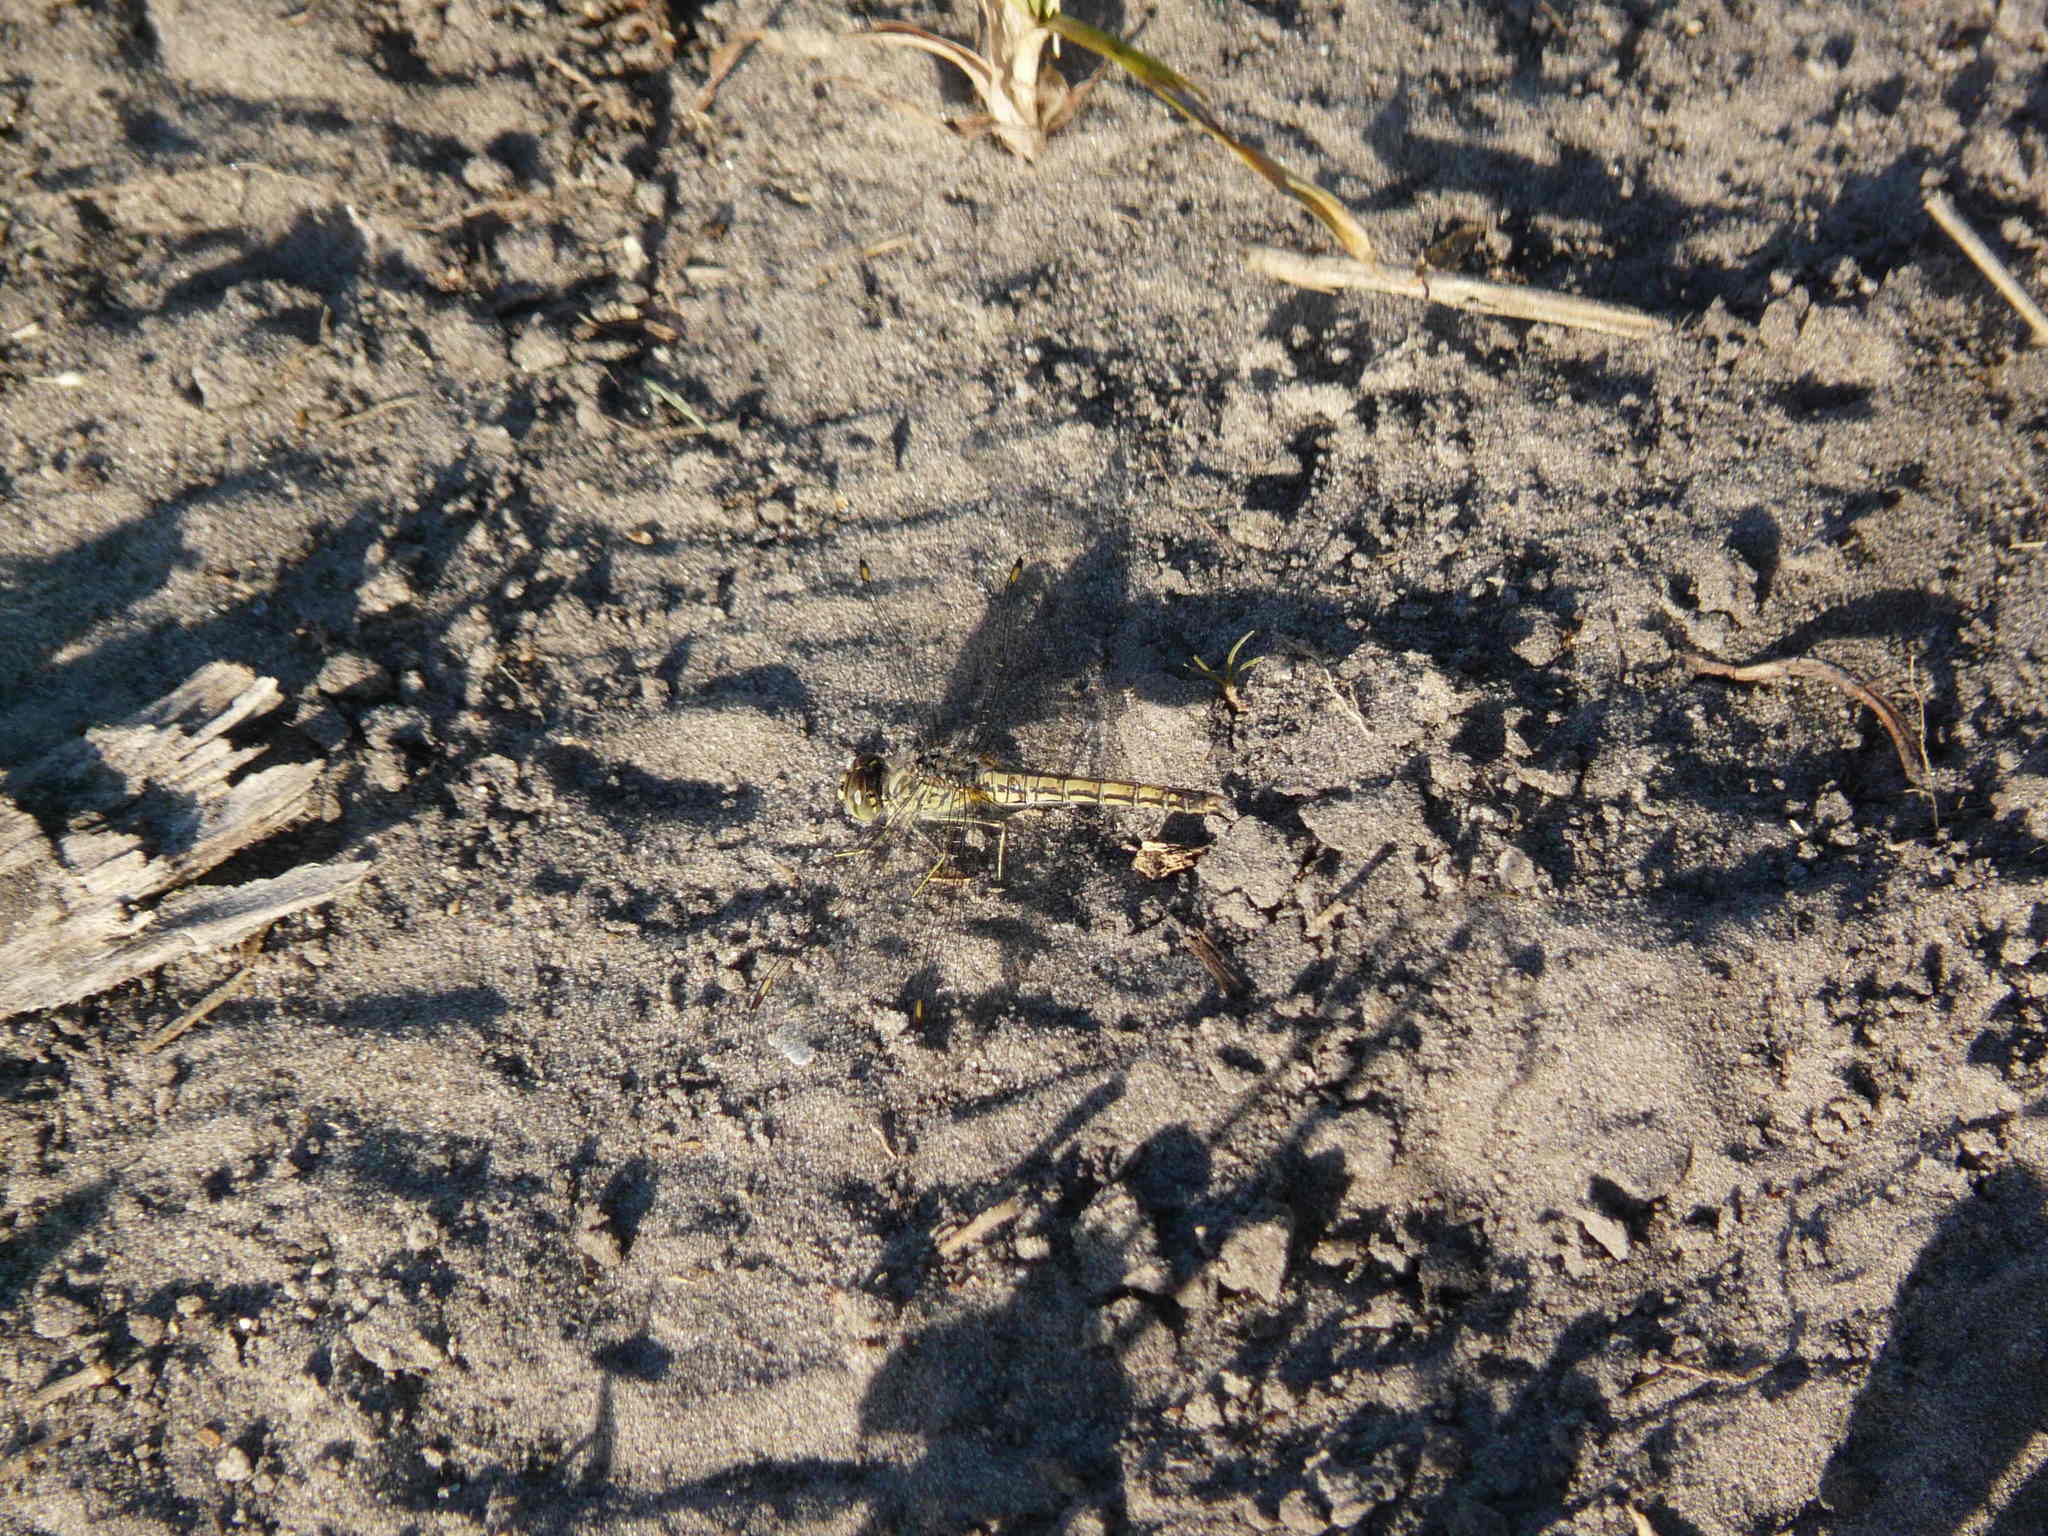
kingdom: Animalia
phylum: Arthropoda
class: Insecta
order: Odonata
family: Libellulidae
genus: Brachythemis
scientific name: Brachythemis leucosticta
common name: Banded groundling
